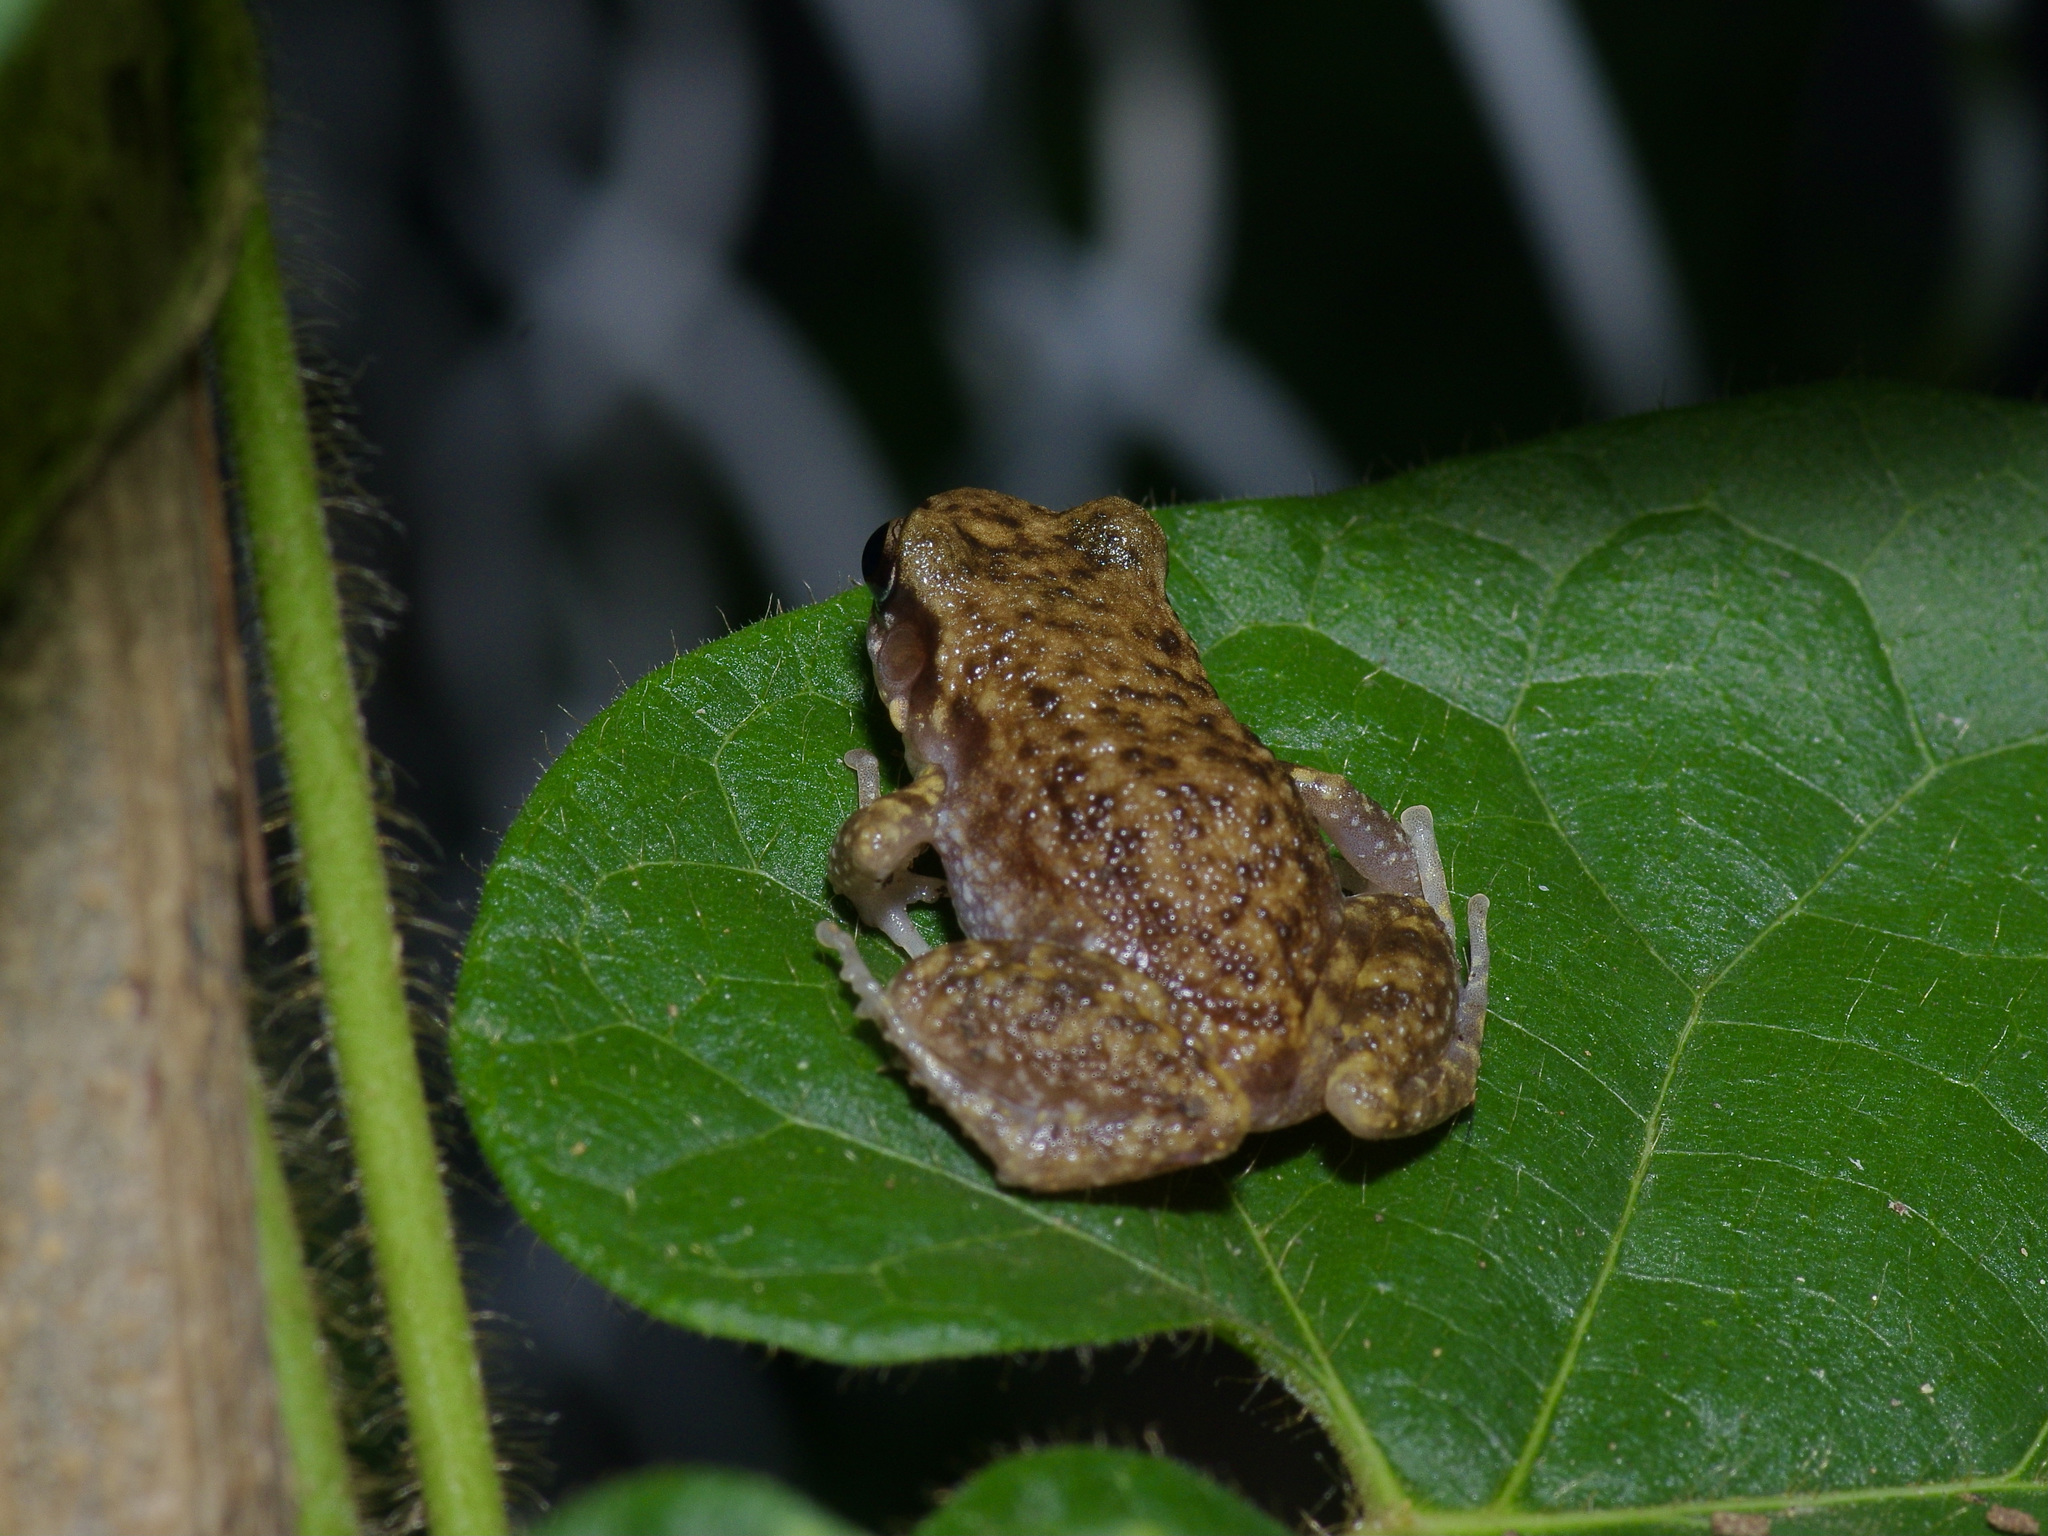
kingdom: Animalia
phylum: Chordata
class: Amphibia
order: Anura
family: Eleutherodactylidae
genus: Eleutherodactylus
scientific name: Eleutherodactylus marnockii
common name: Cliff chirping frog
